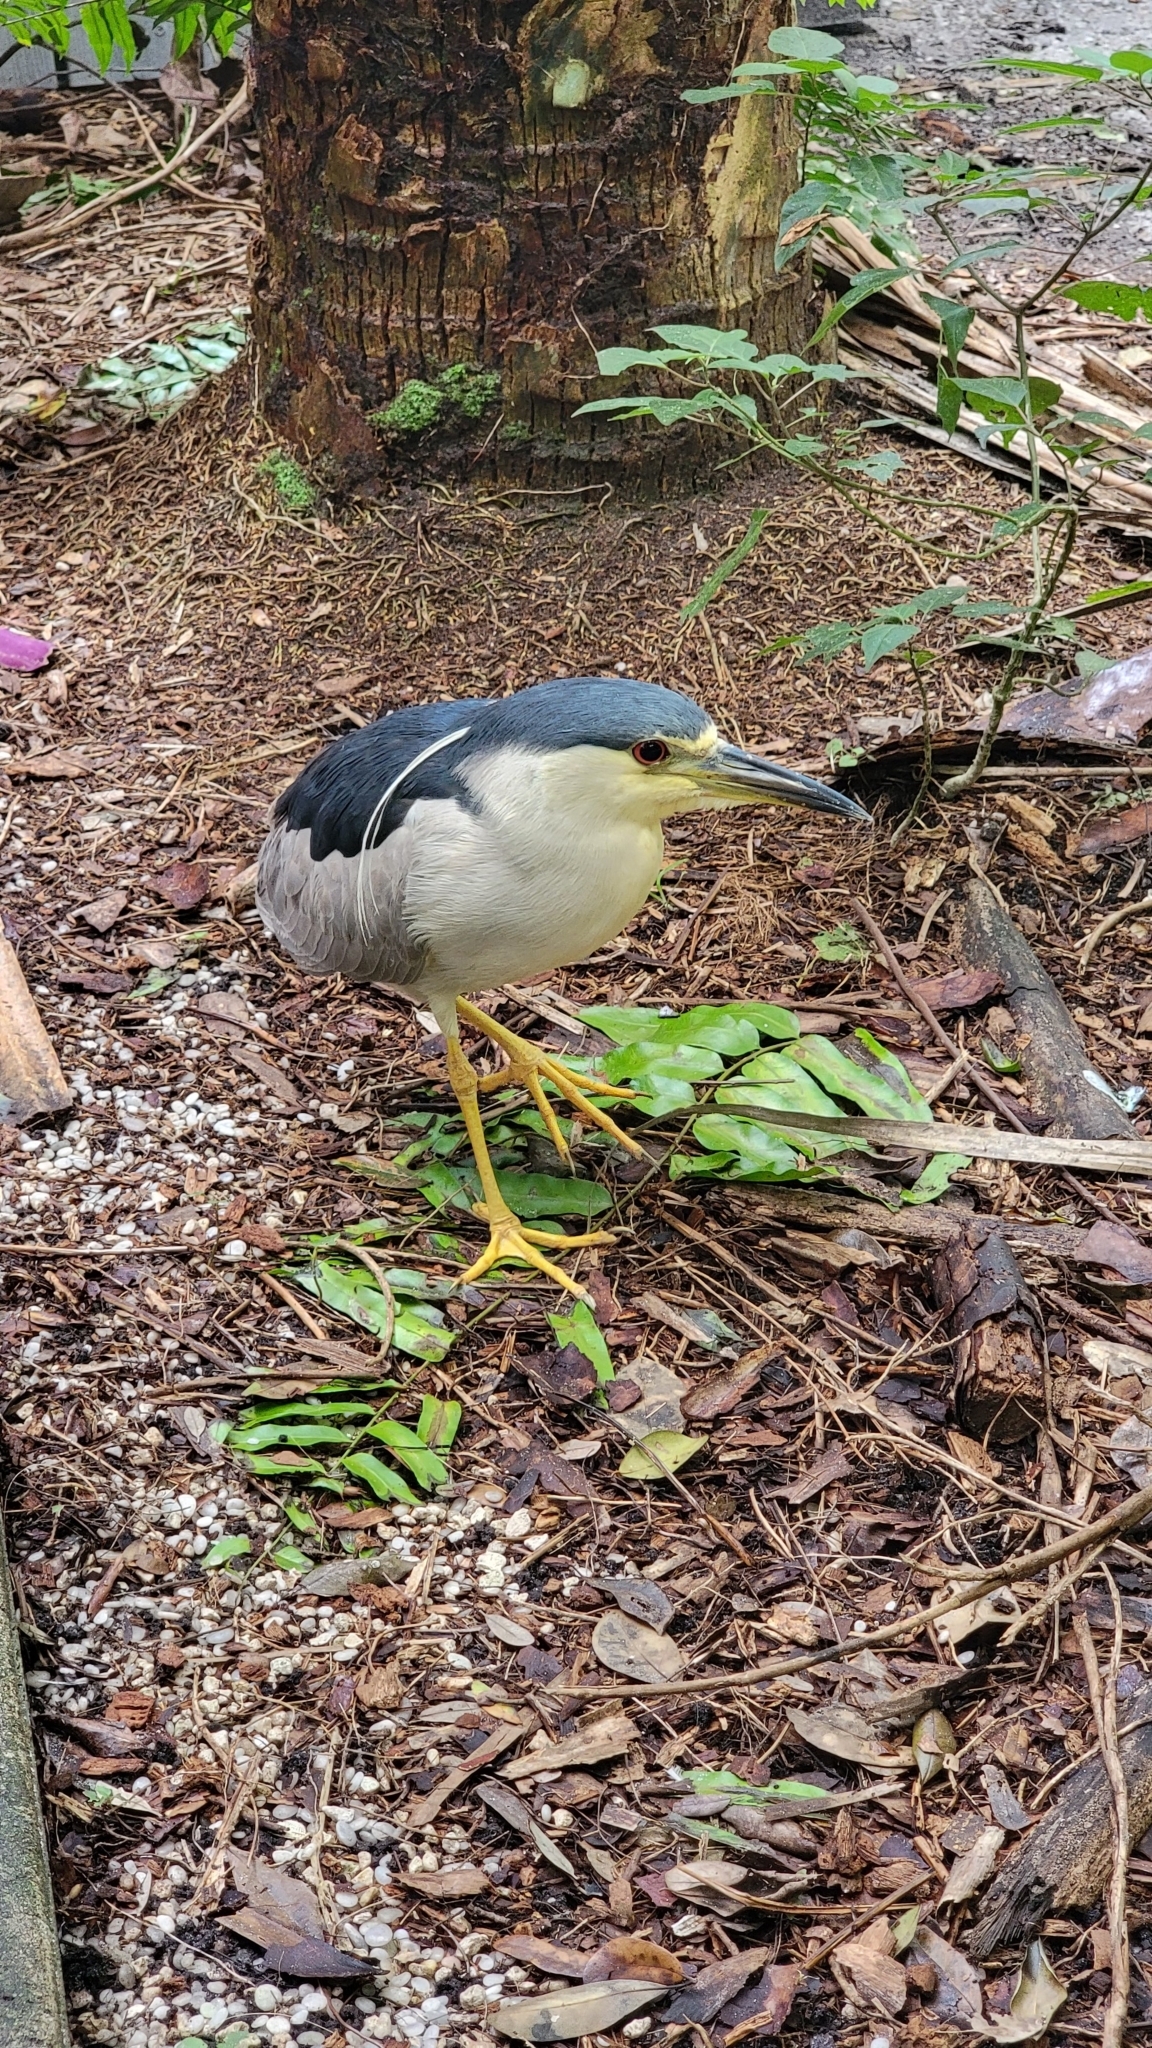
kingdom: Animalia
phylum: Chordata
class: Aves
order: Pelecaniformes
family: Ardeidae
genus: Nycticorax
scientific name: Nycticorax nycticorax
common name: Black-crowned night heron
